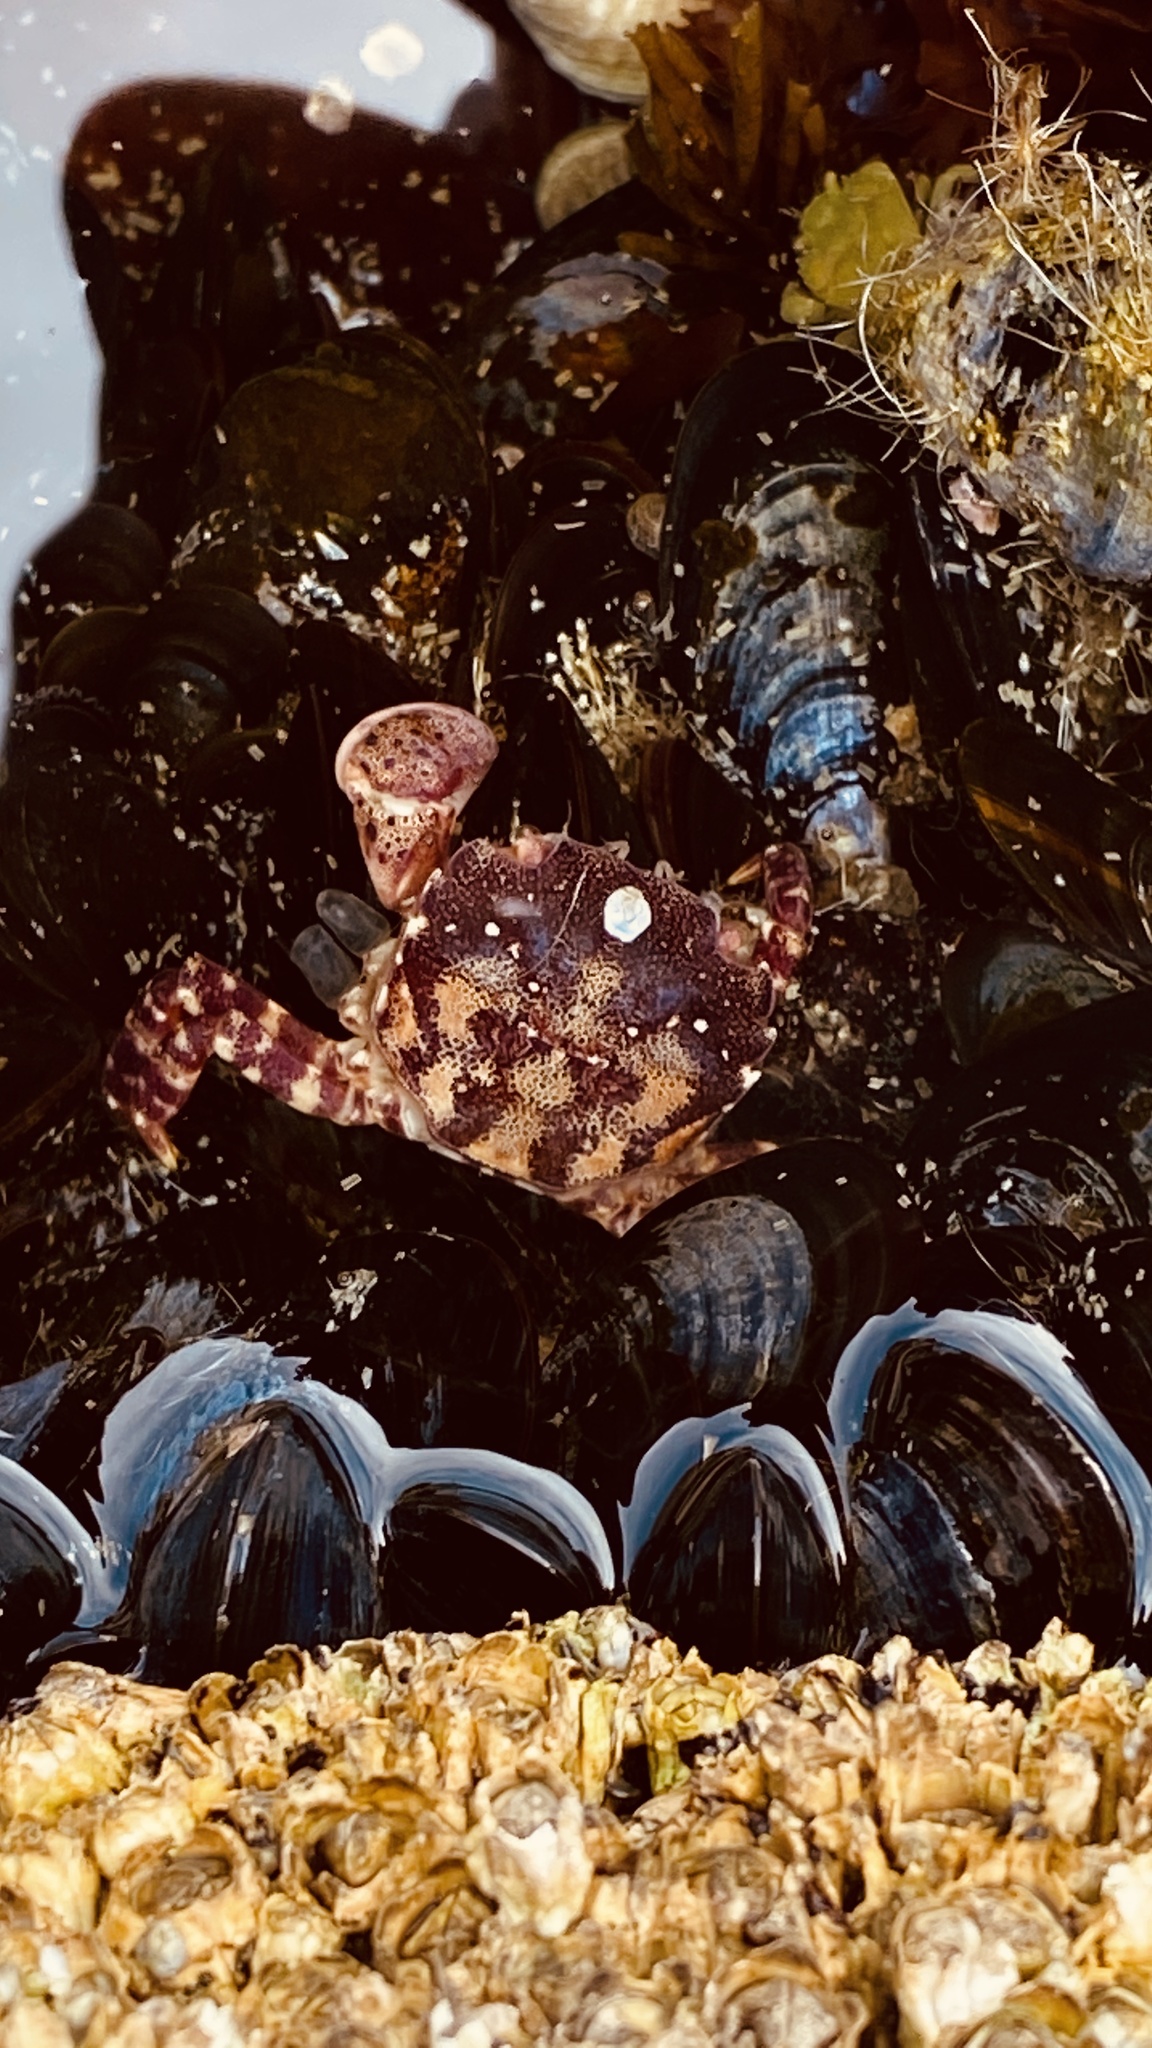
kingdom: Animalia
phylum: Arthropoda
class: Malacostraca
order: Decapoda
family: Varunidae
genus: Hemigrapsus
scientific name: Hemigrapsus sanguineus
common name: Asian shore crab
